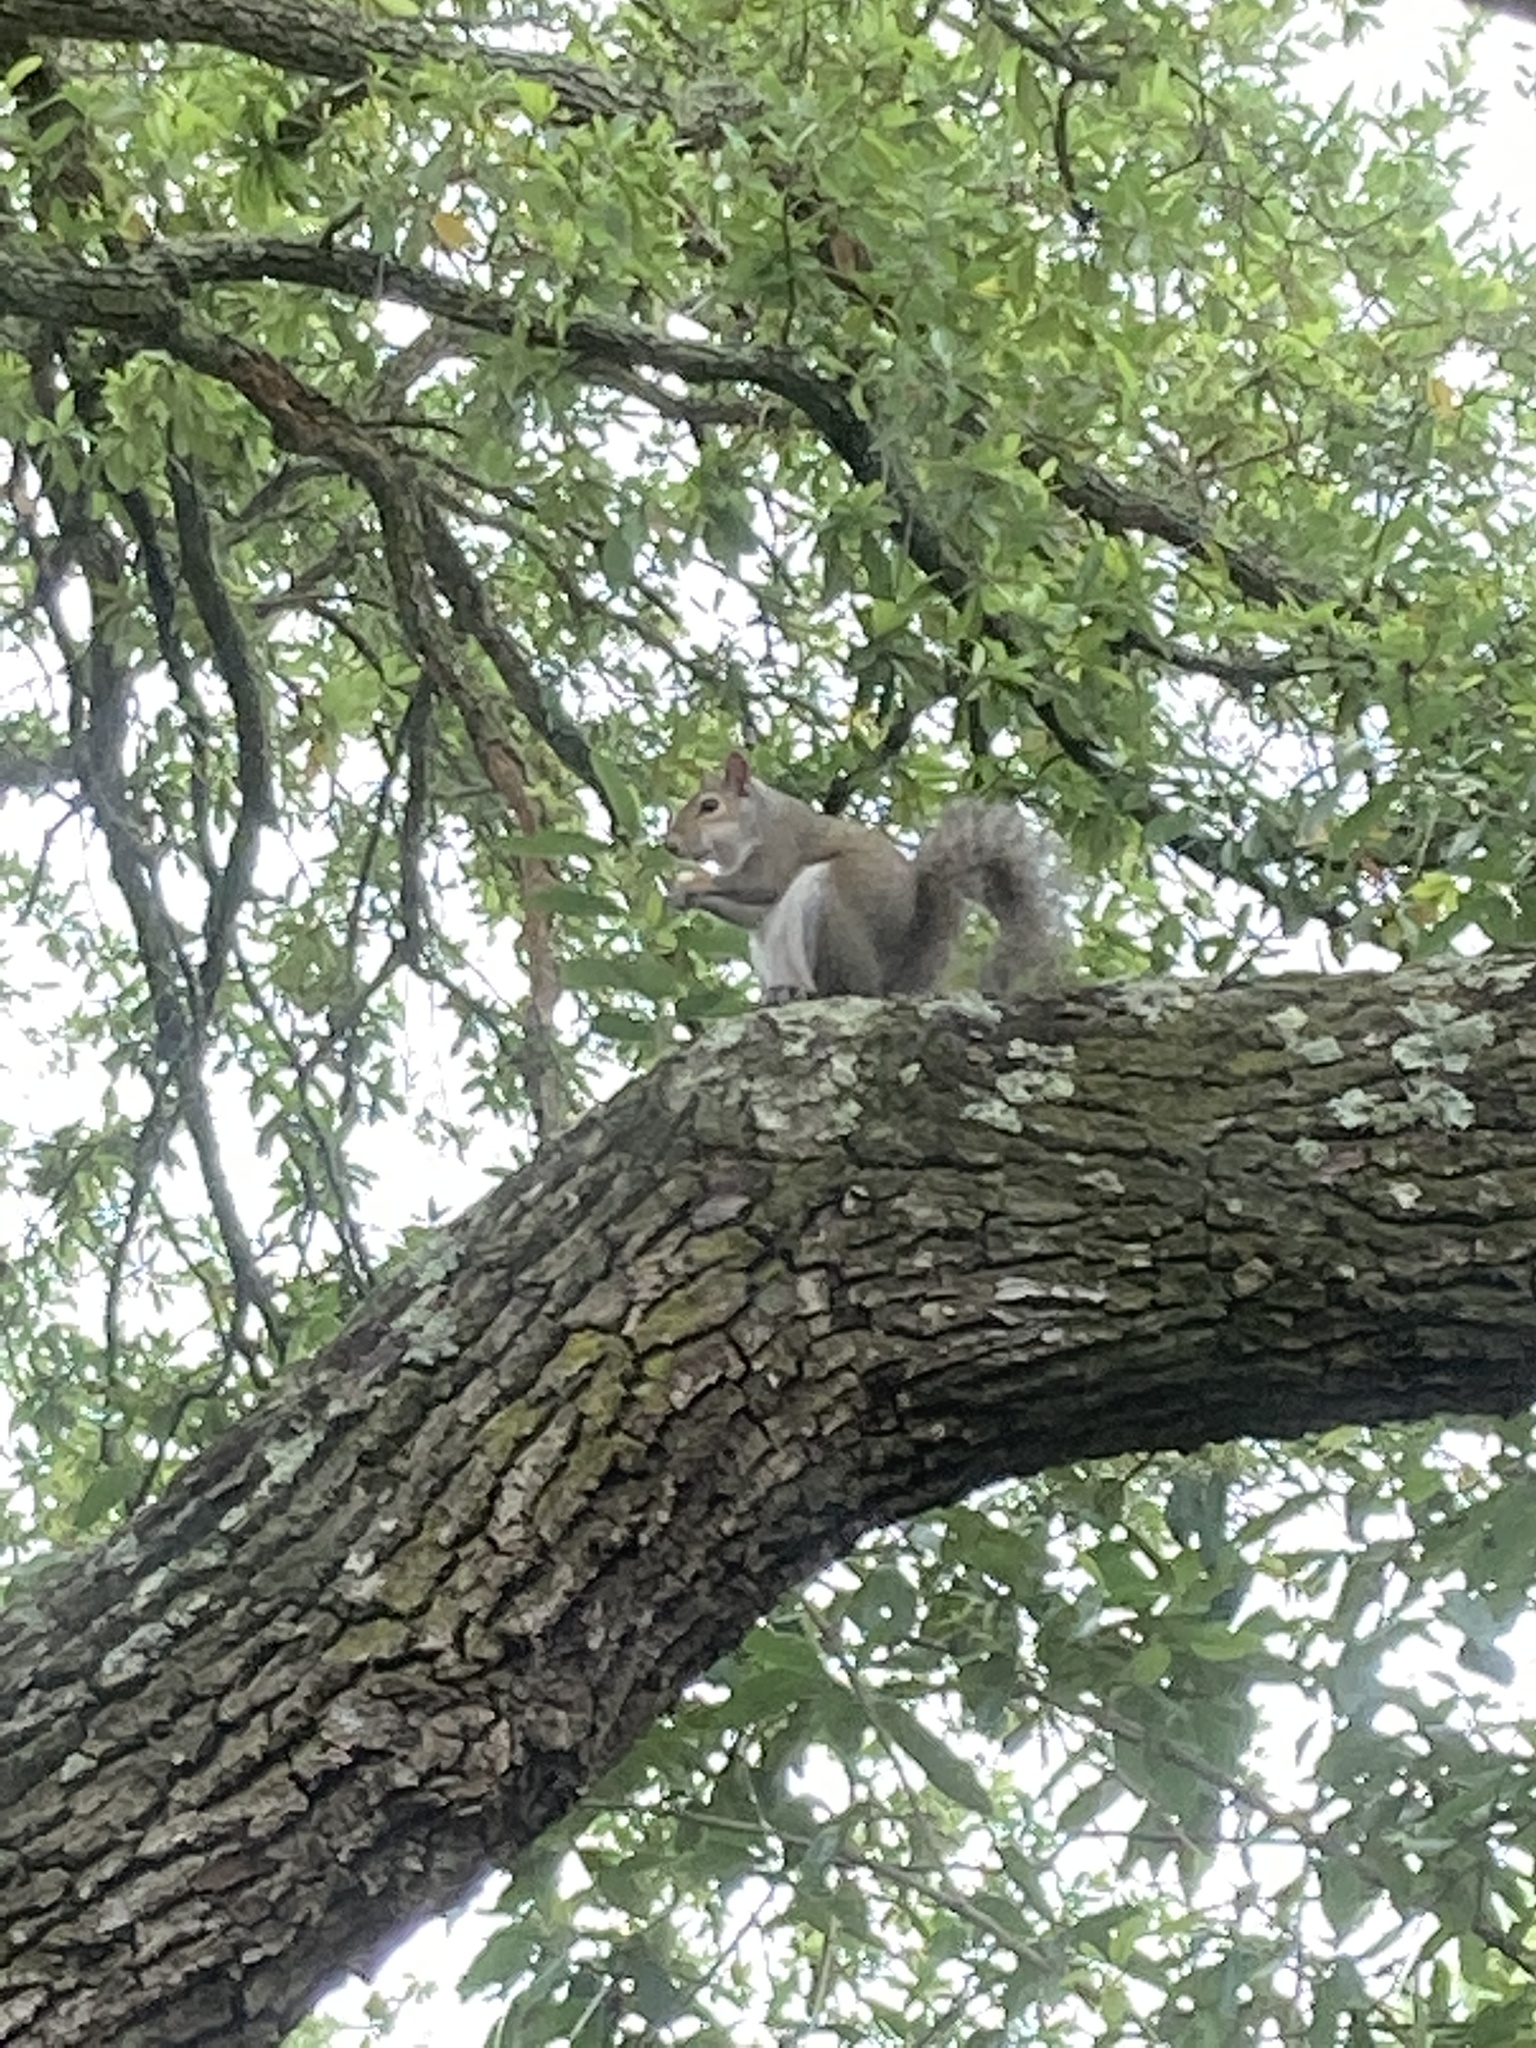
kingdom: Animalia
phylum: Chordata
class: Mammalia
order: Rodentia
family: Sciuridae
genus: Sciurus
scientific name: Sciurus carolinensis
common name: Eastern gray squirrel
